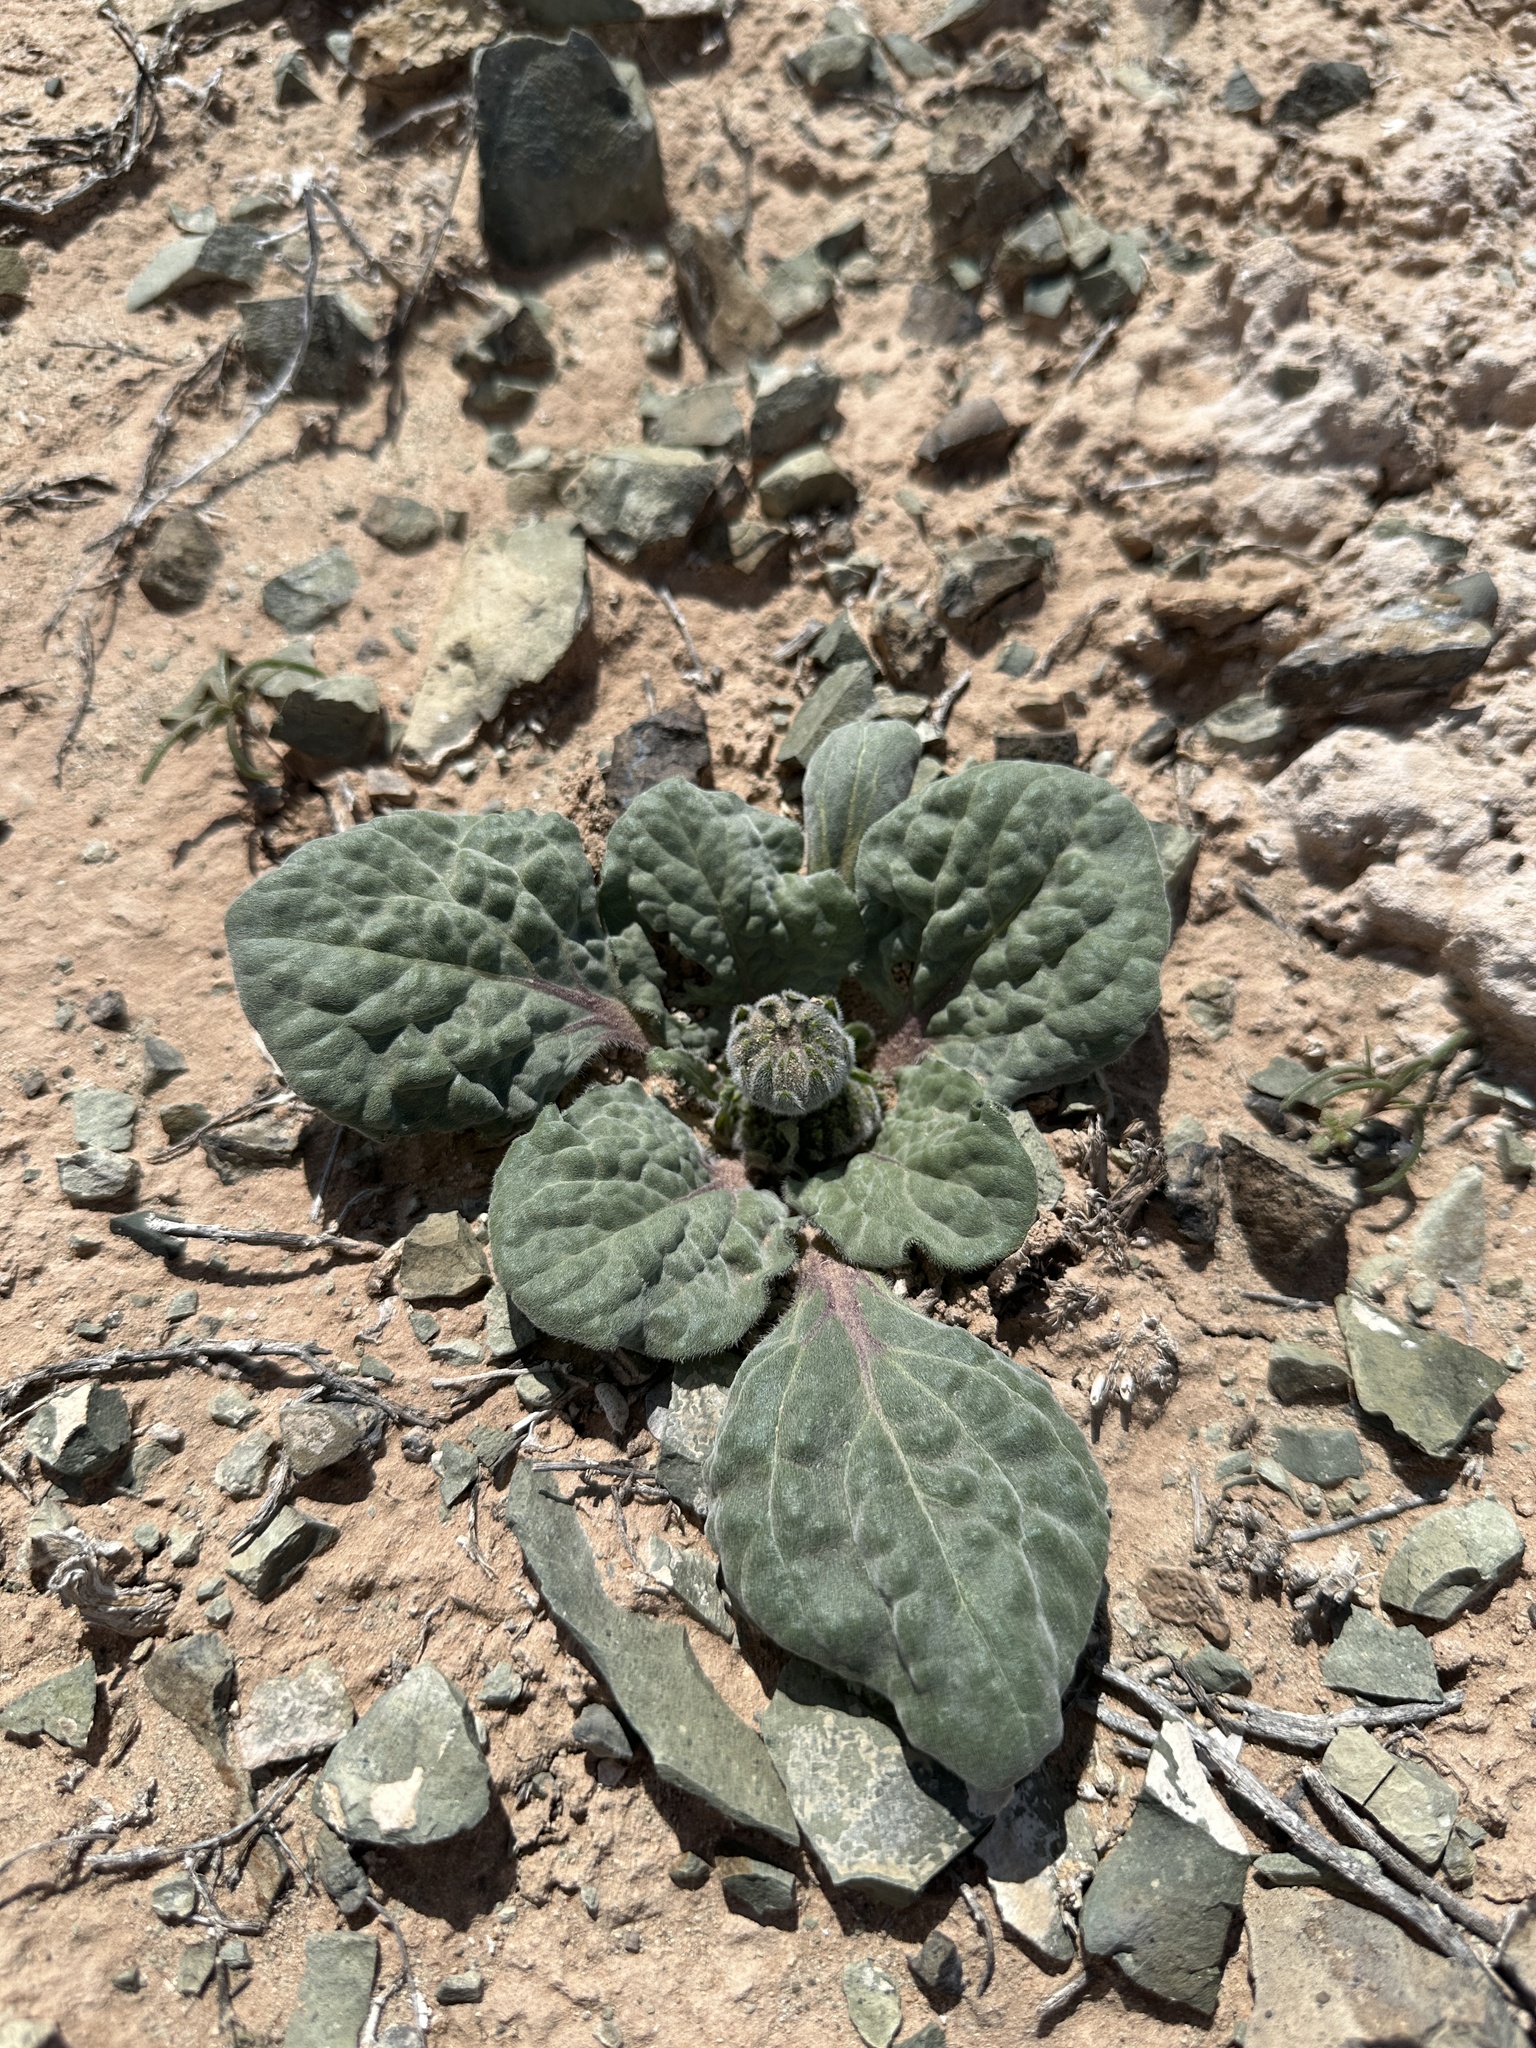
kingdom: Plantae
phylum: Tracheophyta
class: Magnoliopsida
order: Asterales
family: Asteraceae
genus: Encelia
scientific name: Encelia nutans
